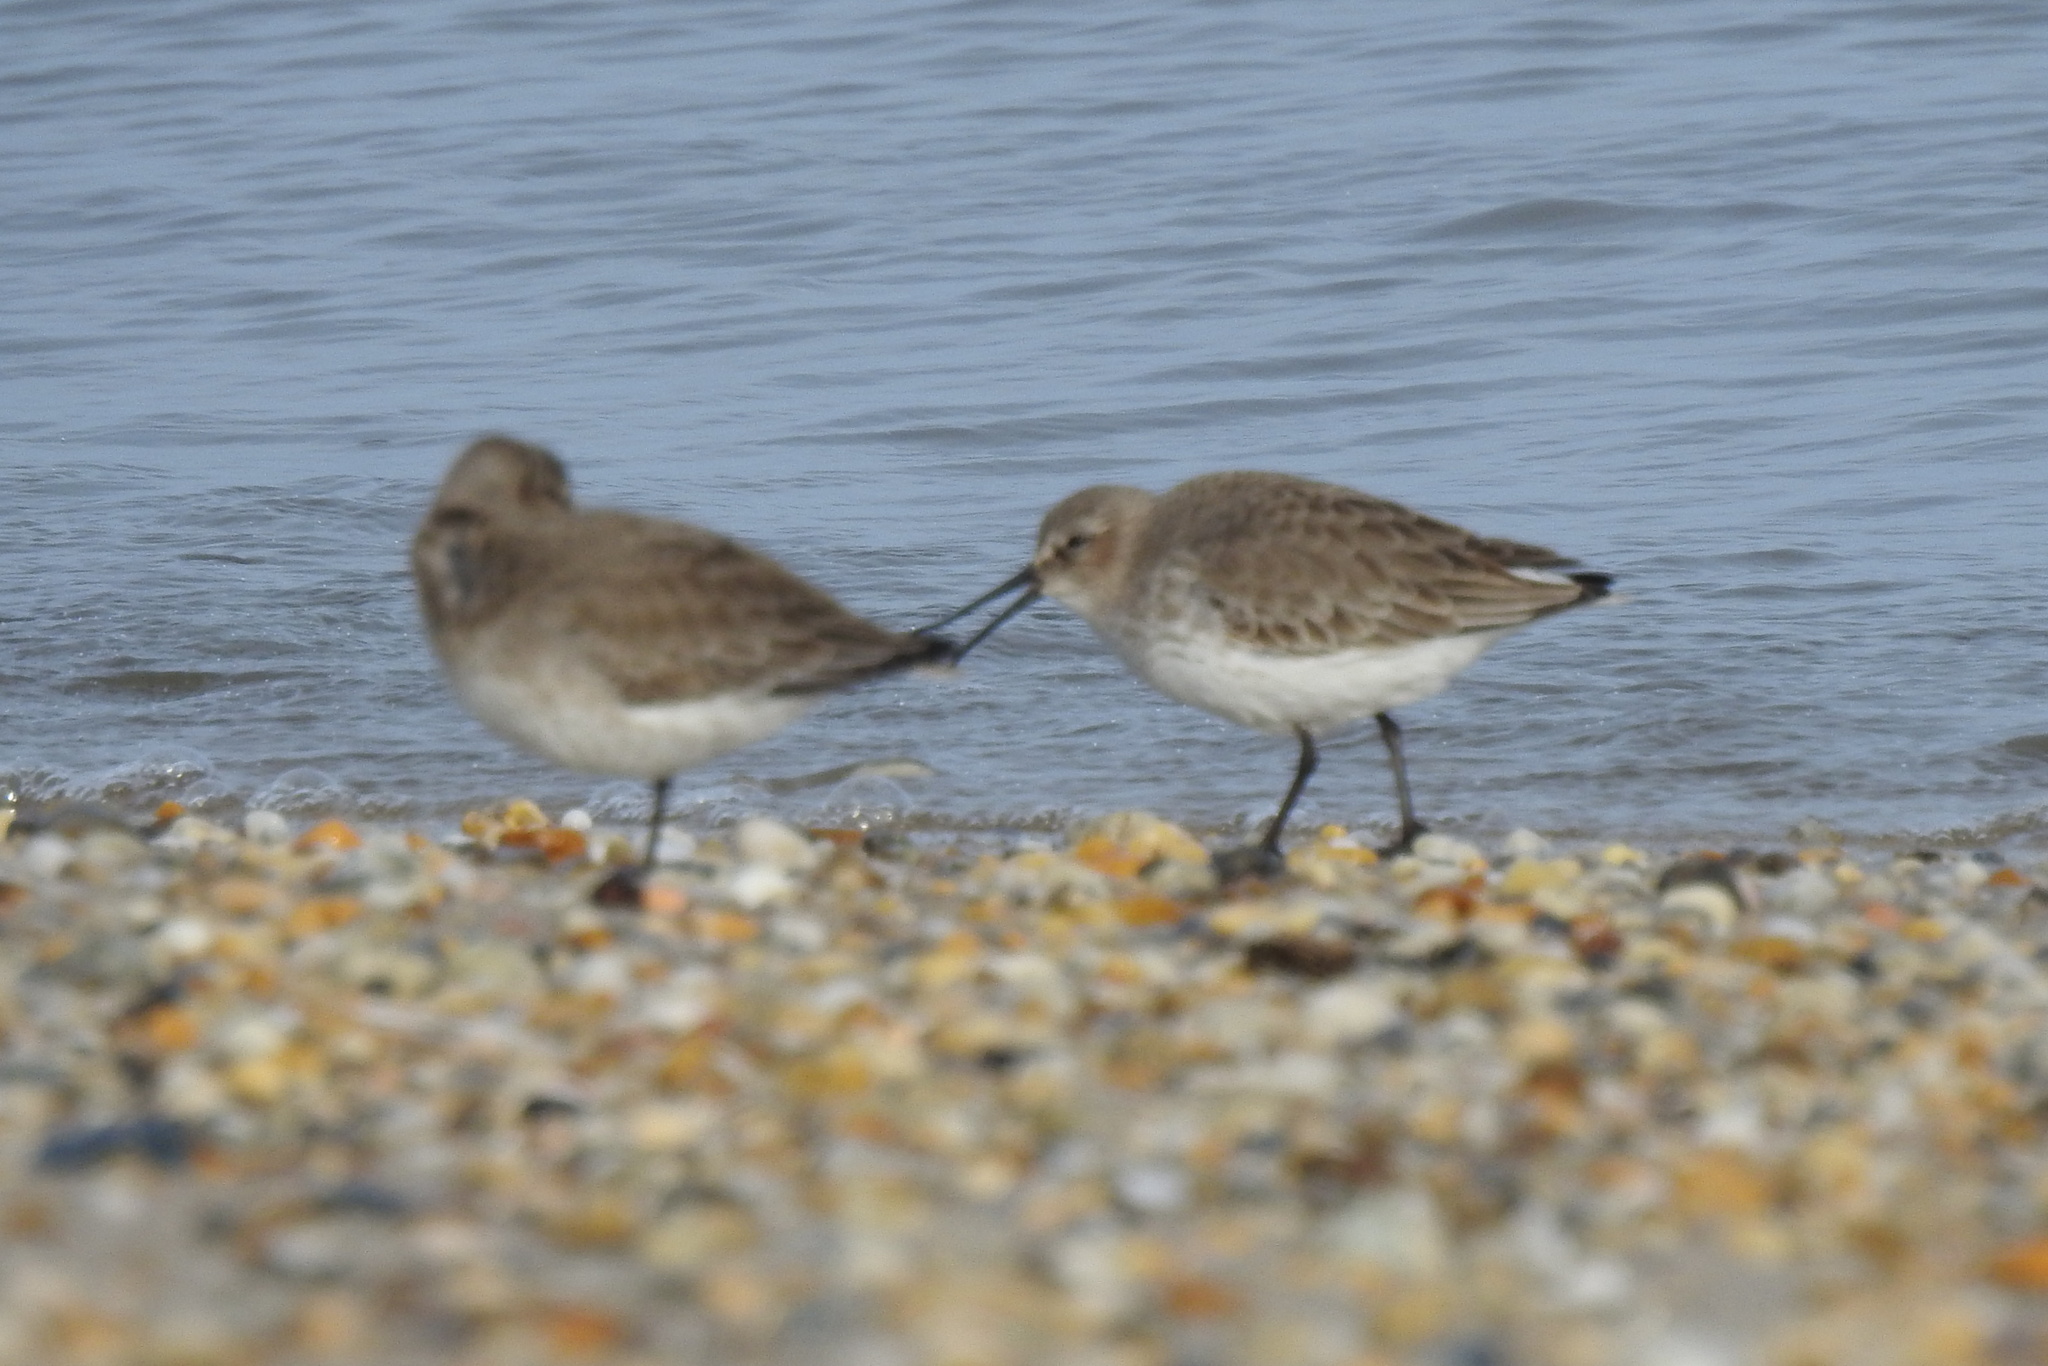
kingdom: Animalia
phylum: Chordata
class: Aves
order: Charadriiformes
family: Scolopacidae
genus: Calidris
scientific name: Calidris alpina
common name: Dunlin
